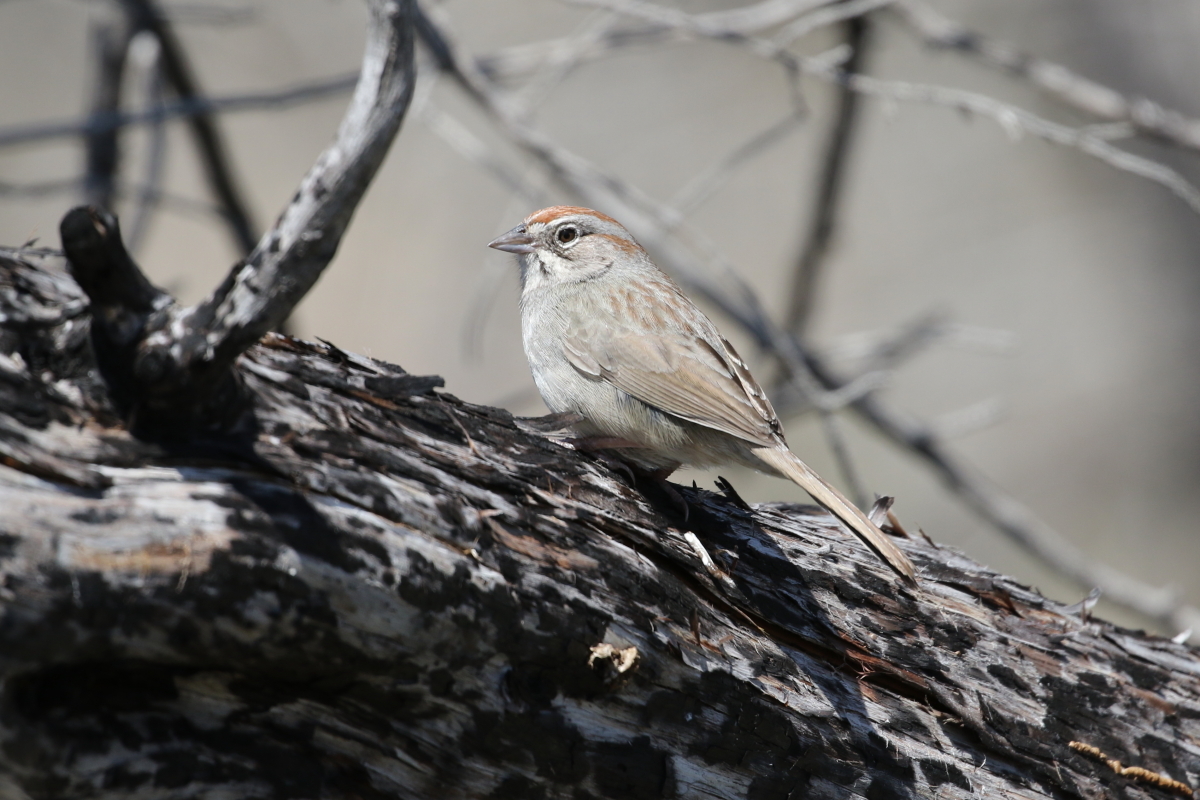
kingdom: Animalia
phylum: Chordata
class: Aves
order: Passeriformes
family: Passerellidae
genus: Aimophila
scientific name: Aimophila ruficeps
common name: Rufous-crowned sparrow
